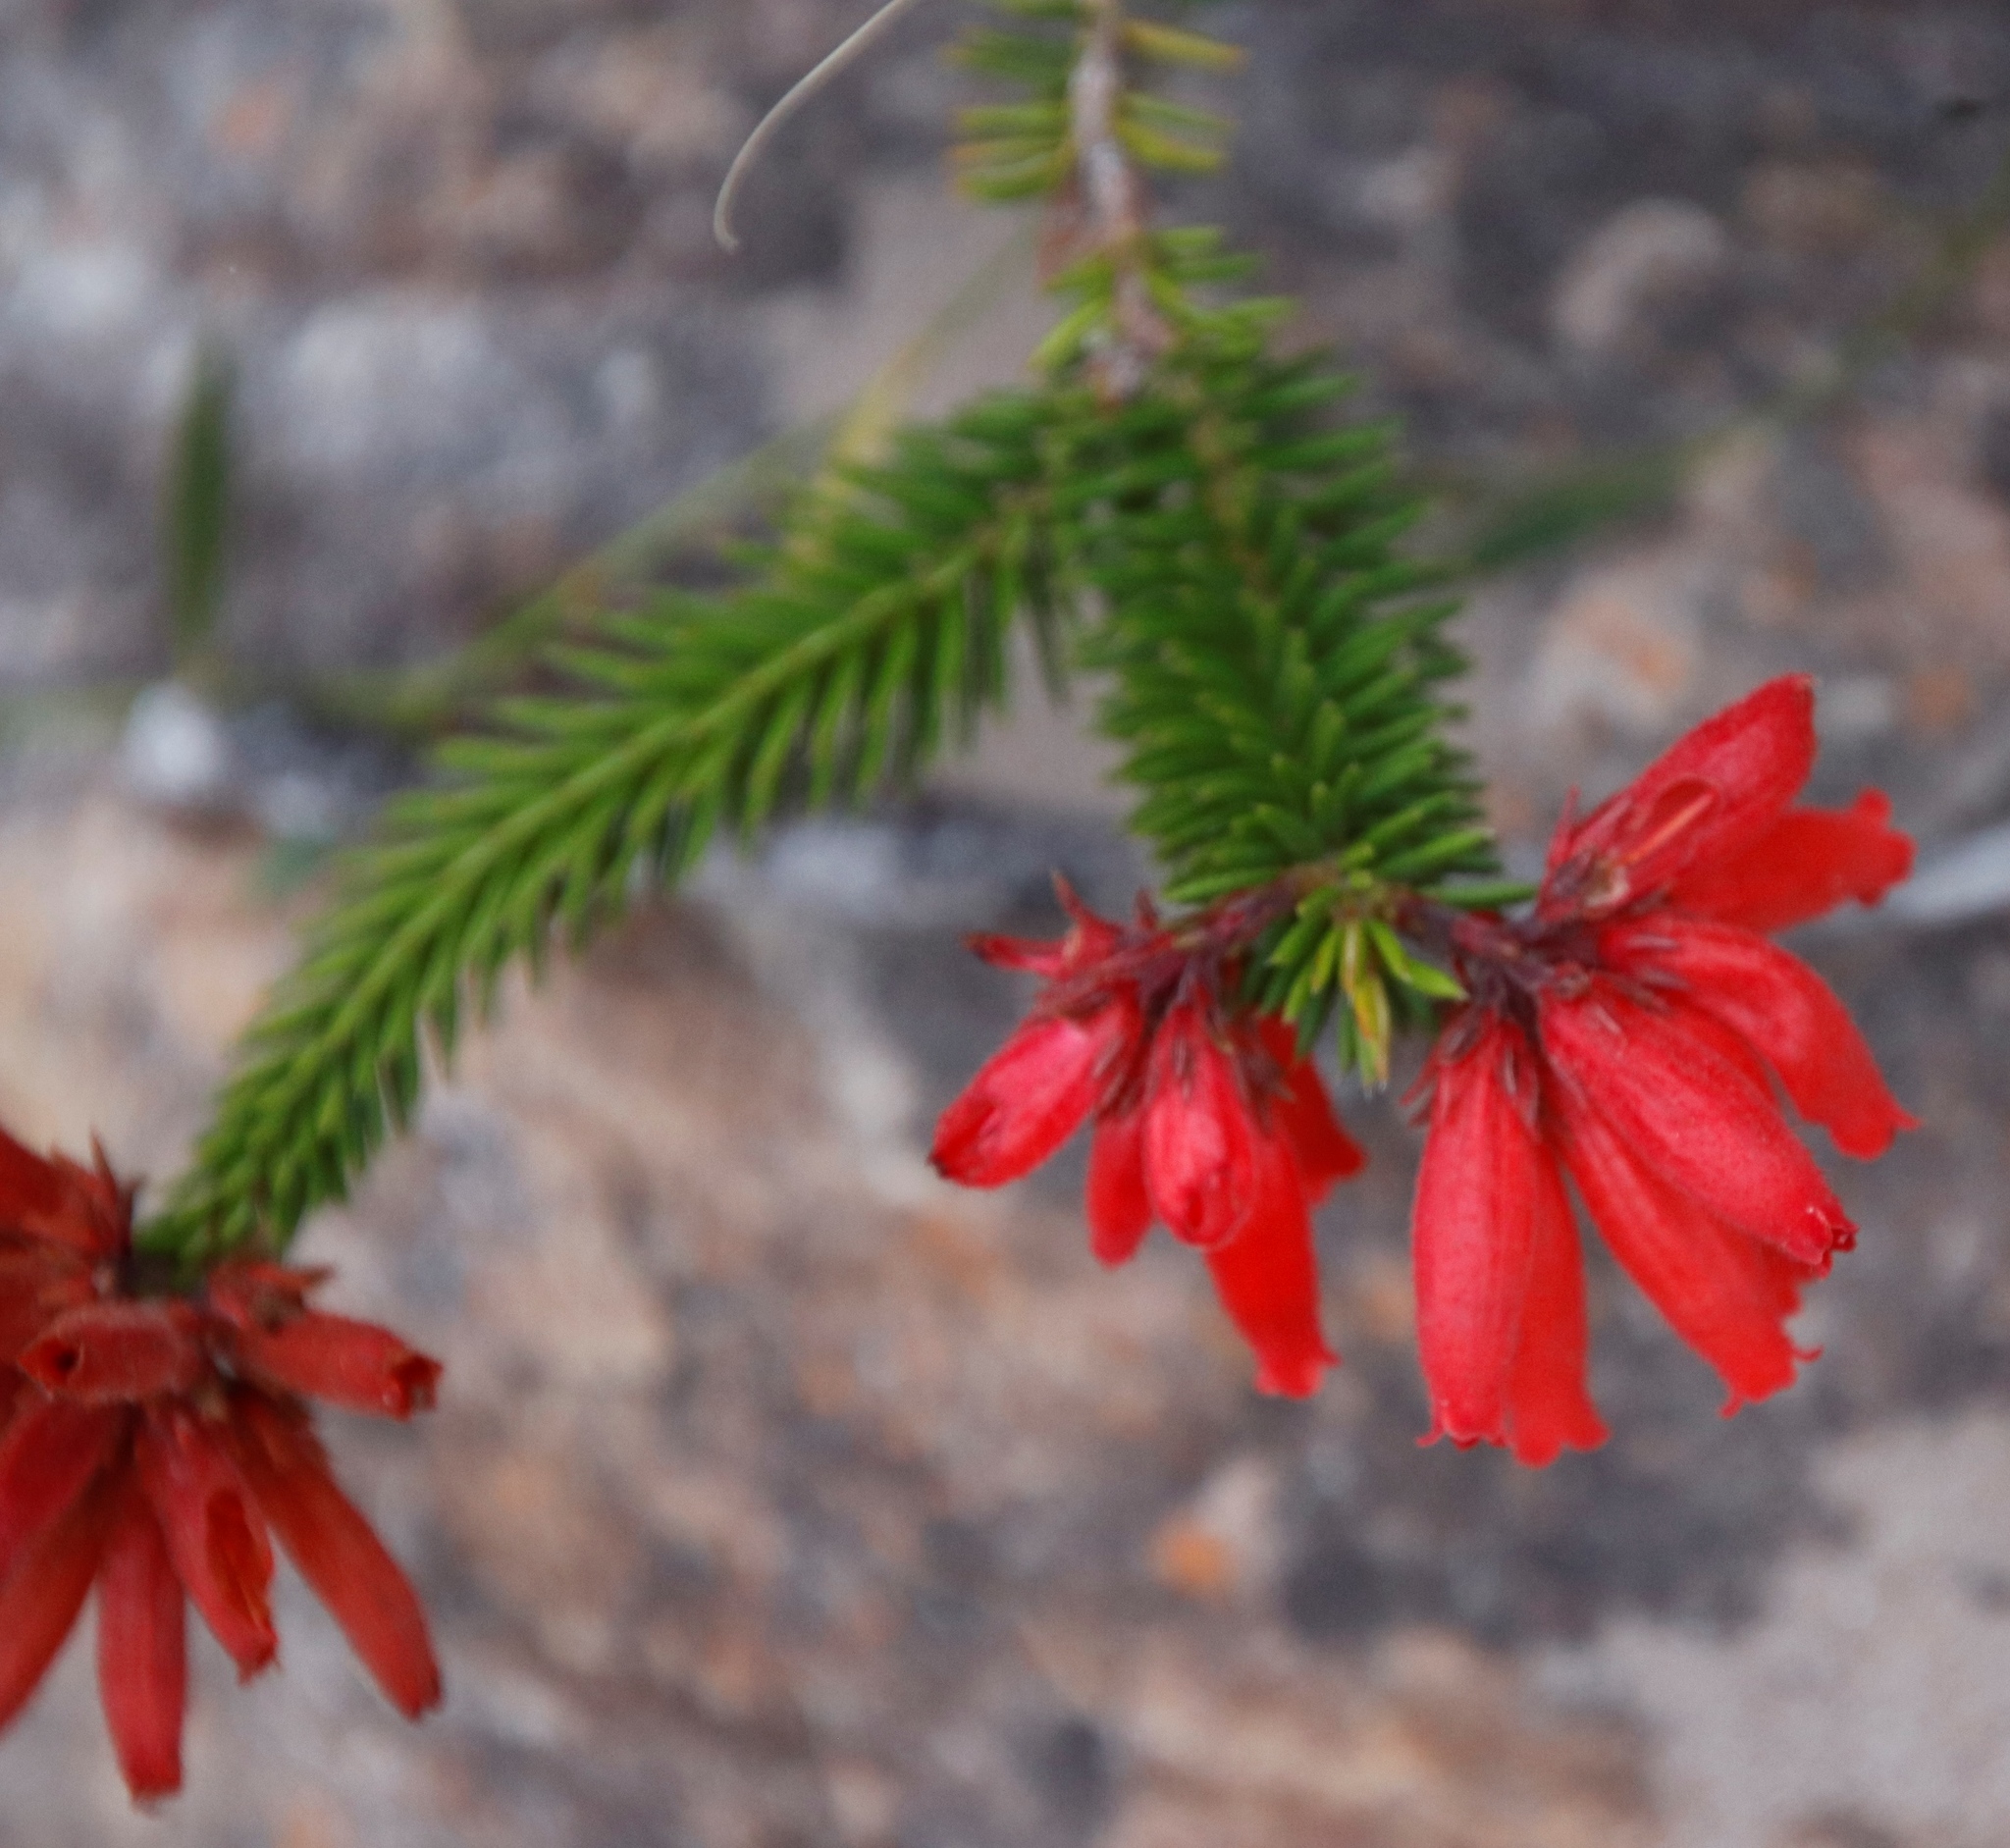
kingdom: Plantae
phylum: Tracheophyta
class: Magnoliopsida
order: Ericales
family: Ericaceae
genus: Erica
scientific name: Erica cerinthoides
